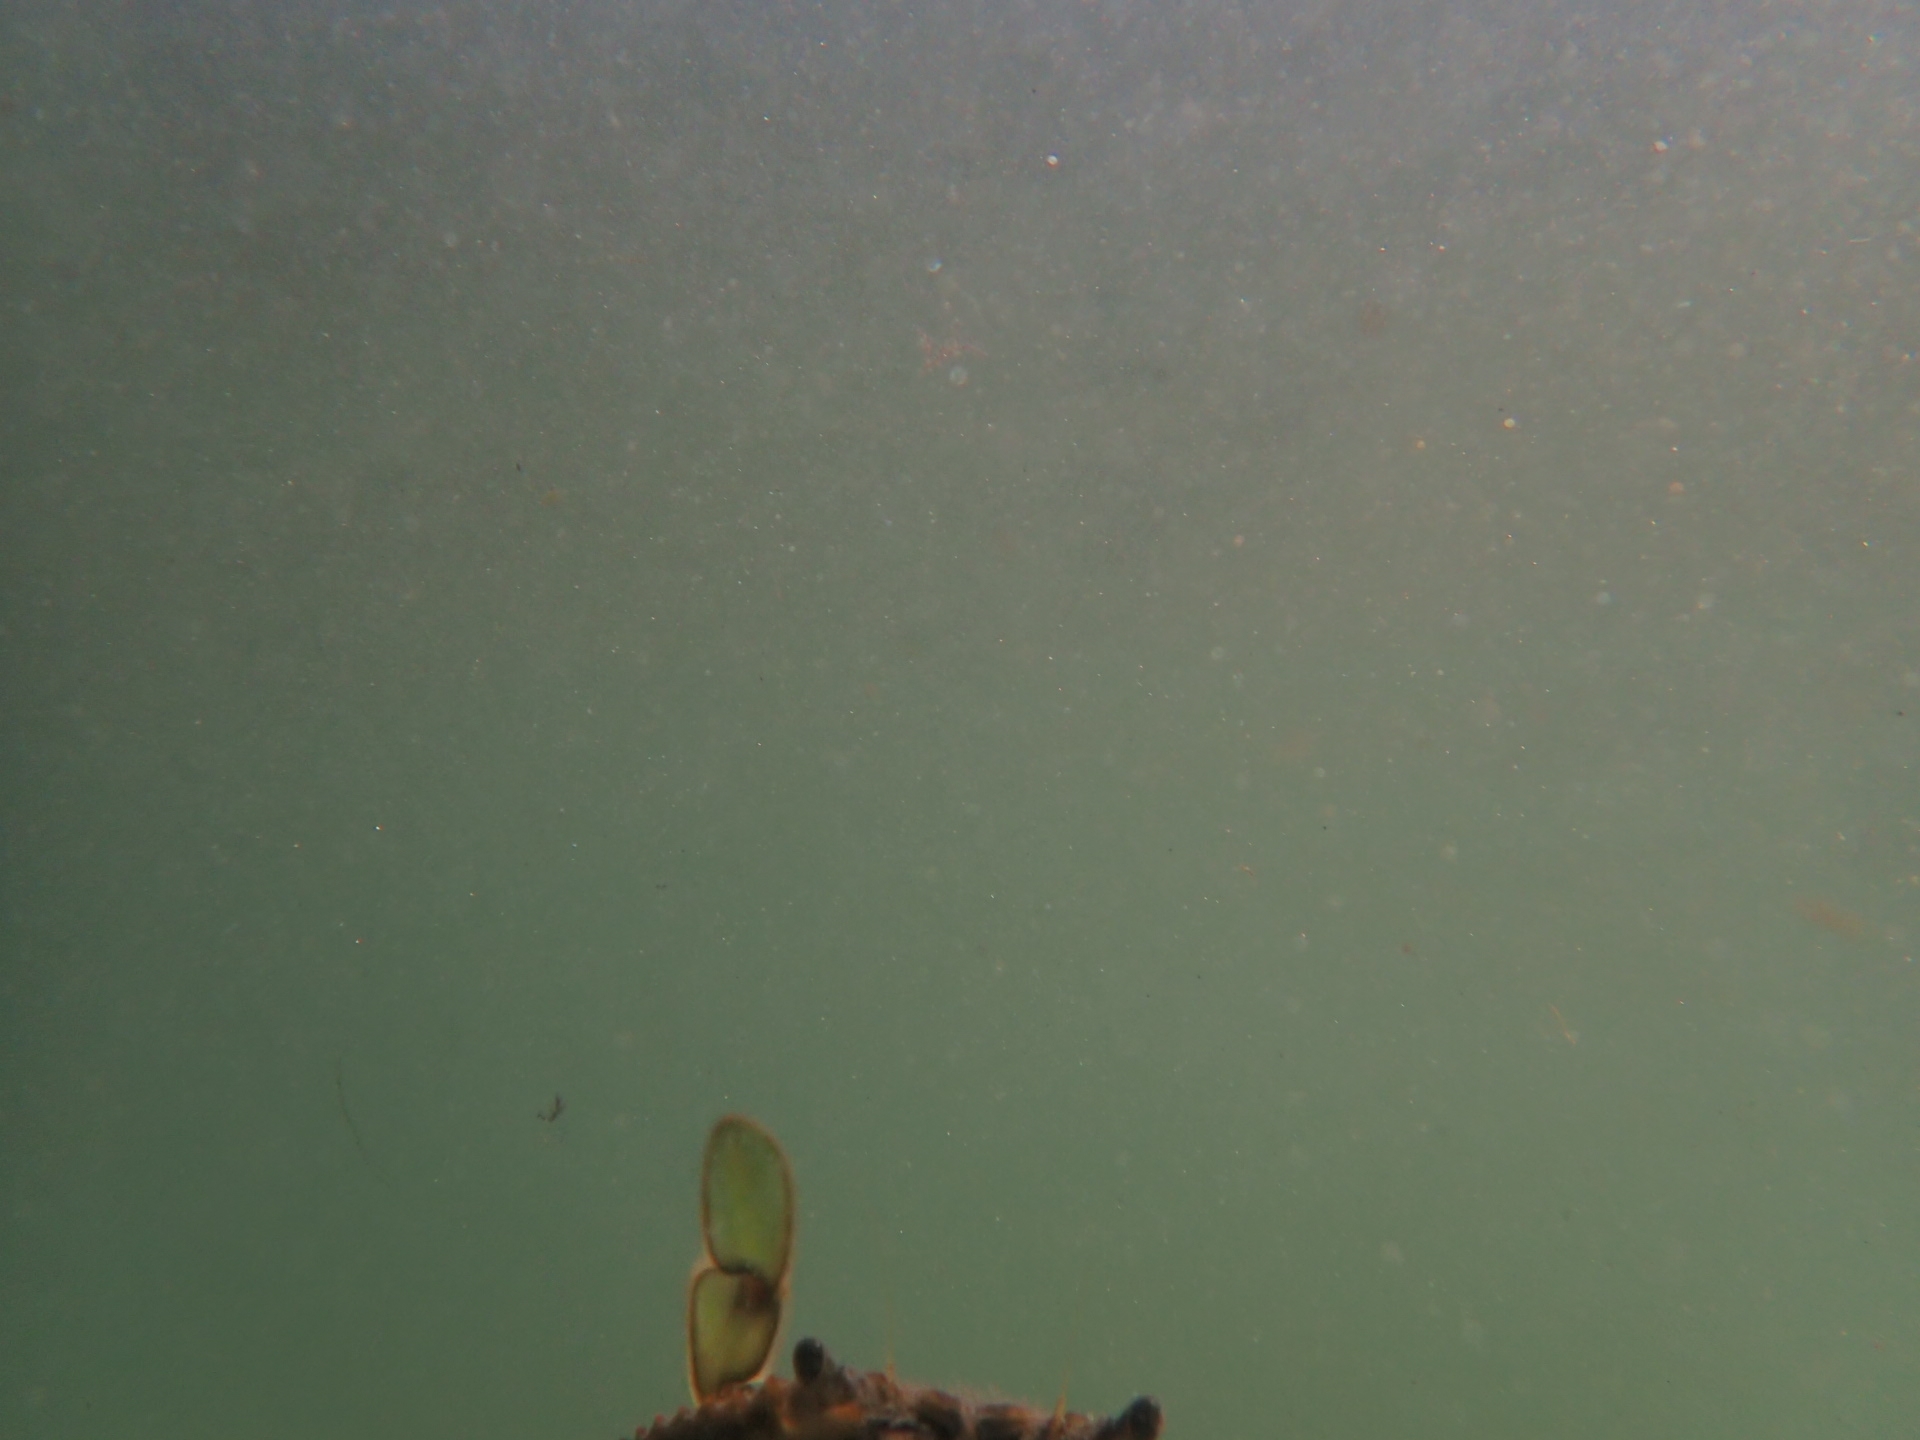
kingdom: Animalia
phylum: Arthropoda
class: Malacostraca
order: Decapoda
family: Portunidae
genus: Callinectes
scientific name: Callinectes sapidus
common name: Blue crab
